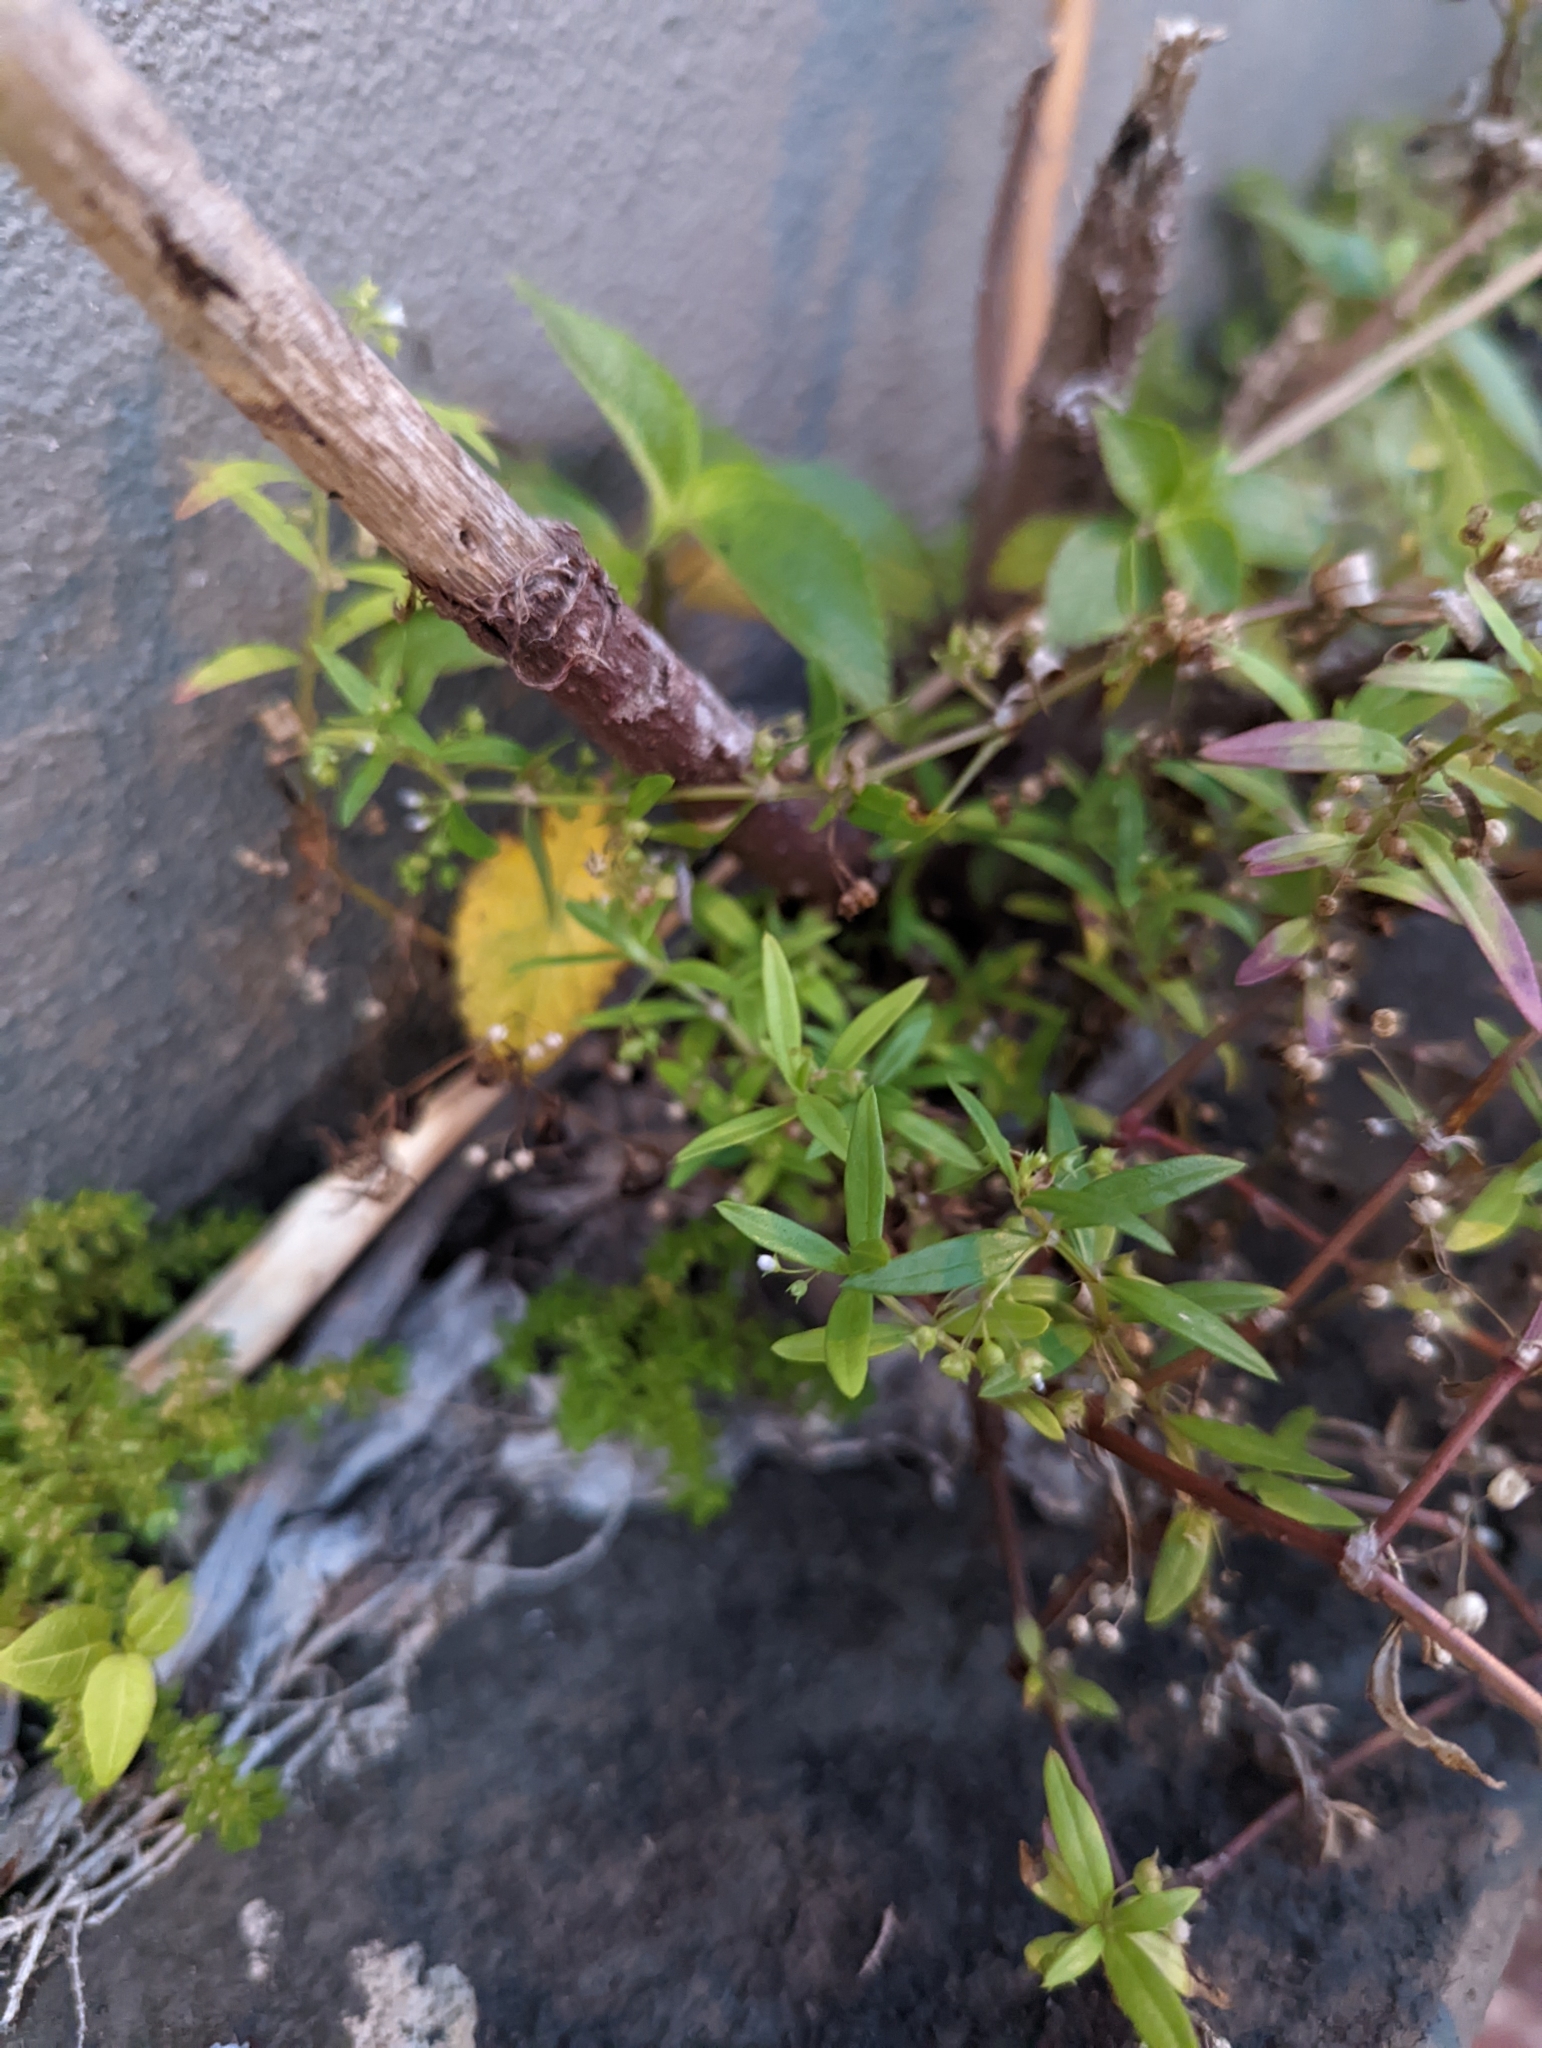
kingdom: Plantae
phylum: Tracheophyta
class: Magnoliopsida
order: Gentianales
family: Rubiaceae
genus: Oldenlandia
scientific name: Oldenlandia corymbosa
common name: Flat-top mille graines
